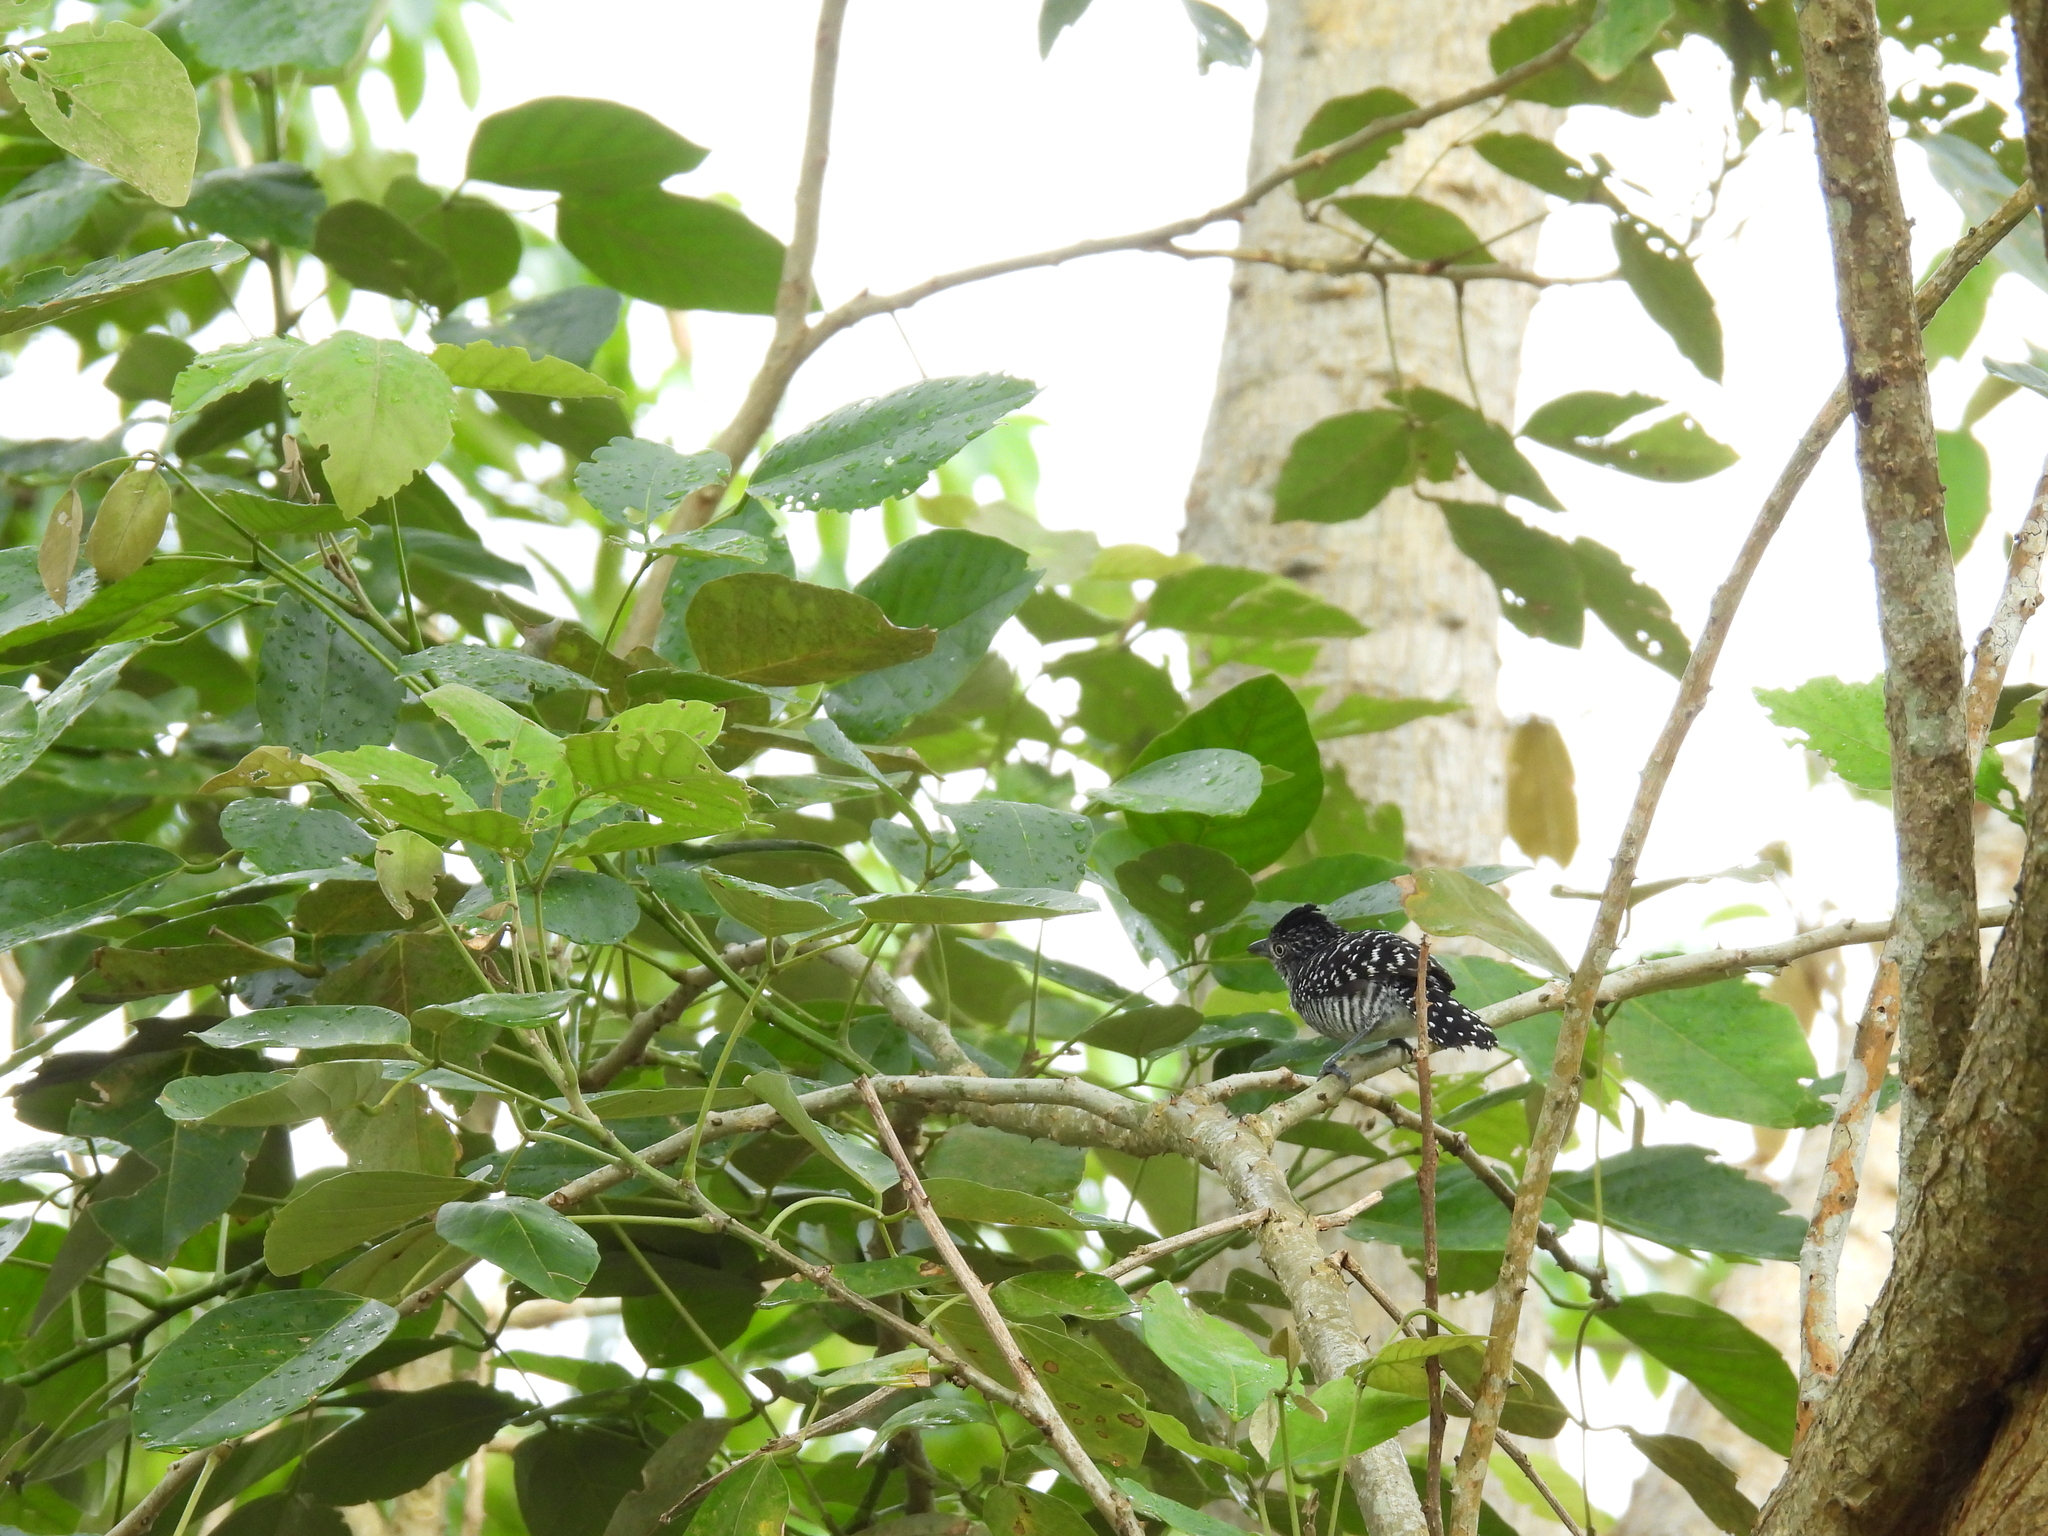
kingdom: Animalia
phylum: Chordata
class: Aves
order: Passeriformes
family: Thamnophilidae
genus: Thamnophilus
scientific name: Thamnophilus doliatus
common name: Barred antshrike
